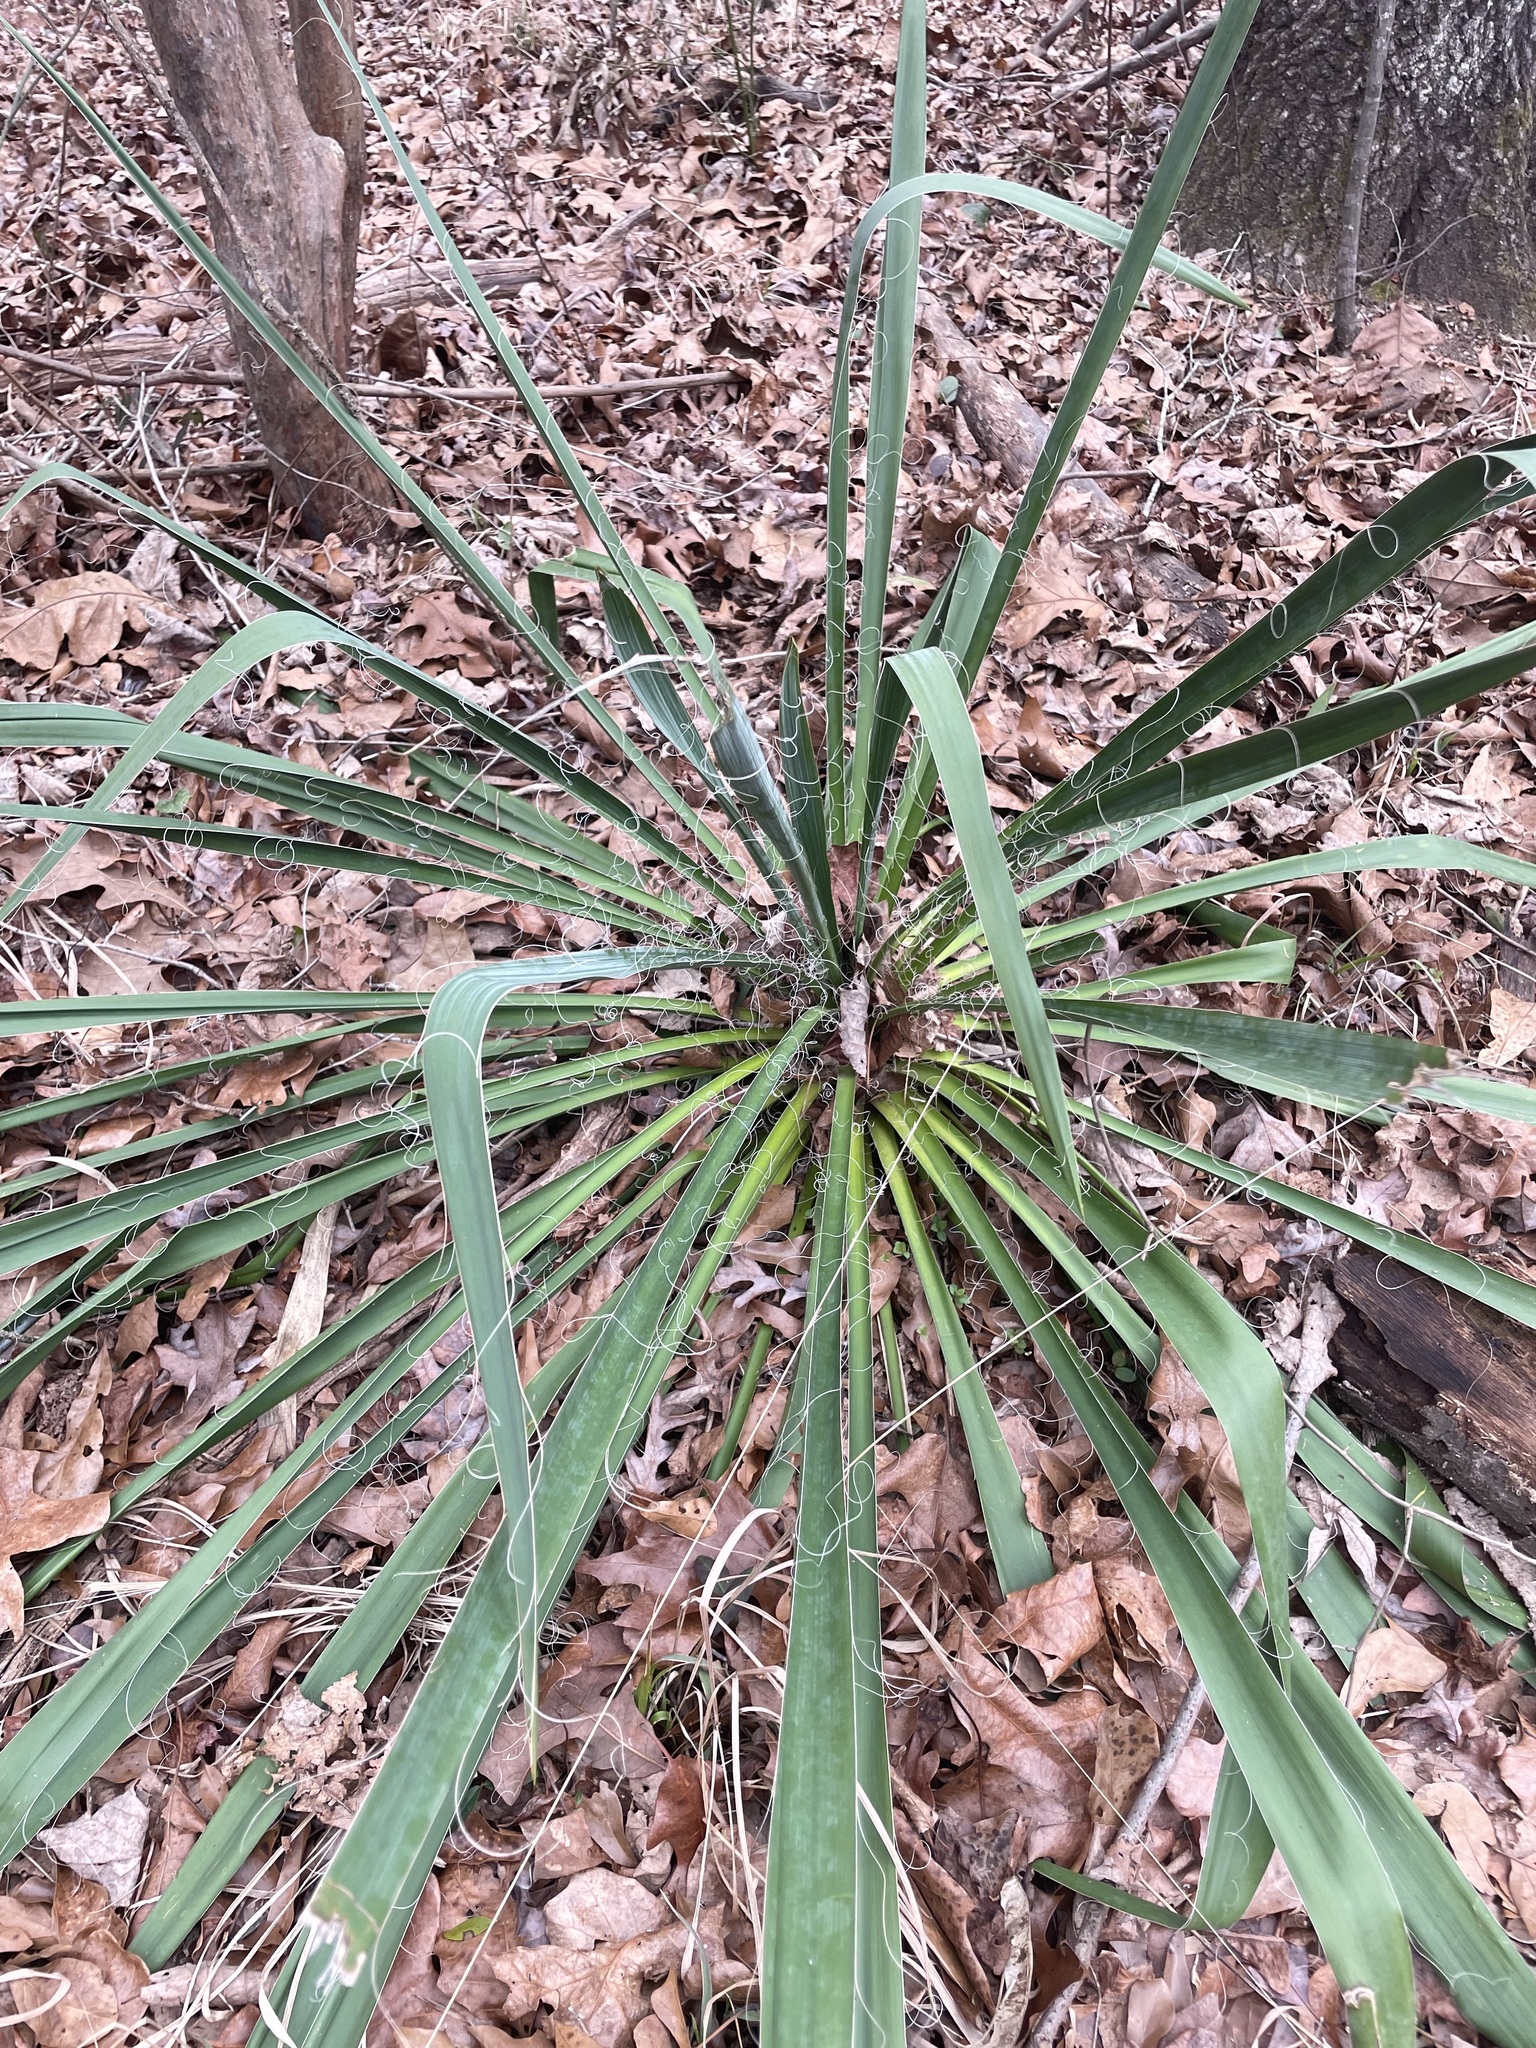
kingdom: Plantae
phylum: Tracheophyta
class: Liliopsida
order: Asparagales
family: Asparagaceae
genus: Yucca
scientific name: Yucca filamentosa
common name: Adam's-needle
